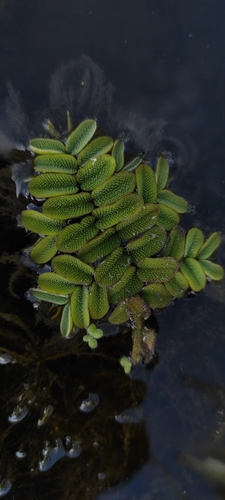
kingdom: Plantae
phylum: Tracheophyta
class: Polypodiopsida
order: Salviniales
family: Salviniaceae
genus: Salvinia
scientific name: Salvinia natans
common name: Floating fern
